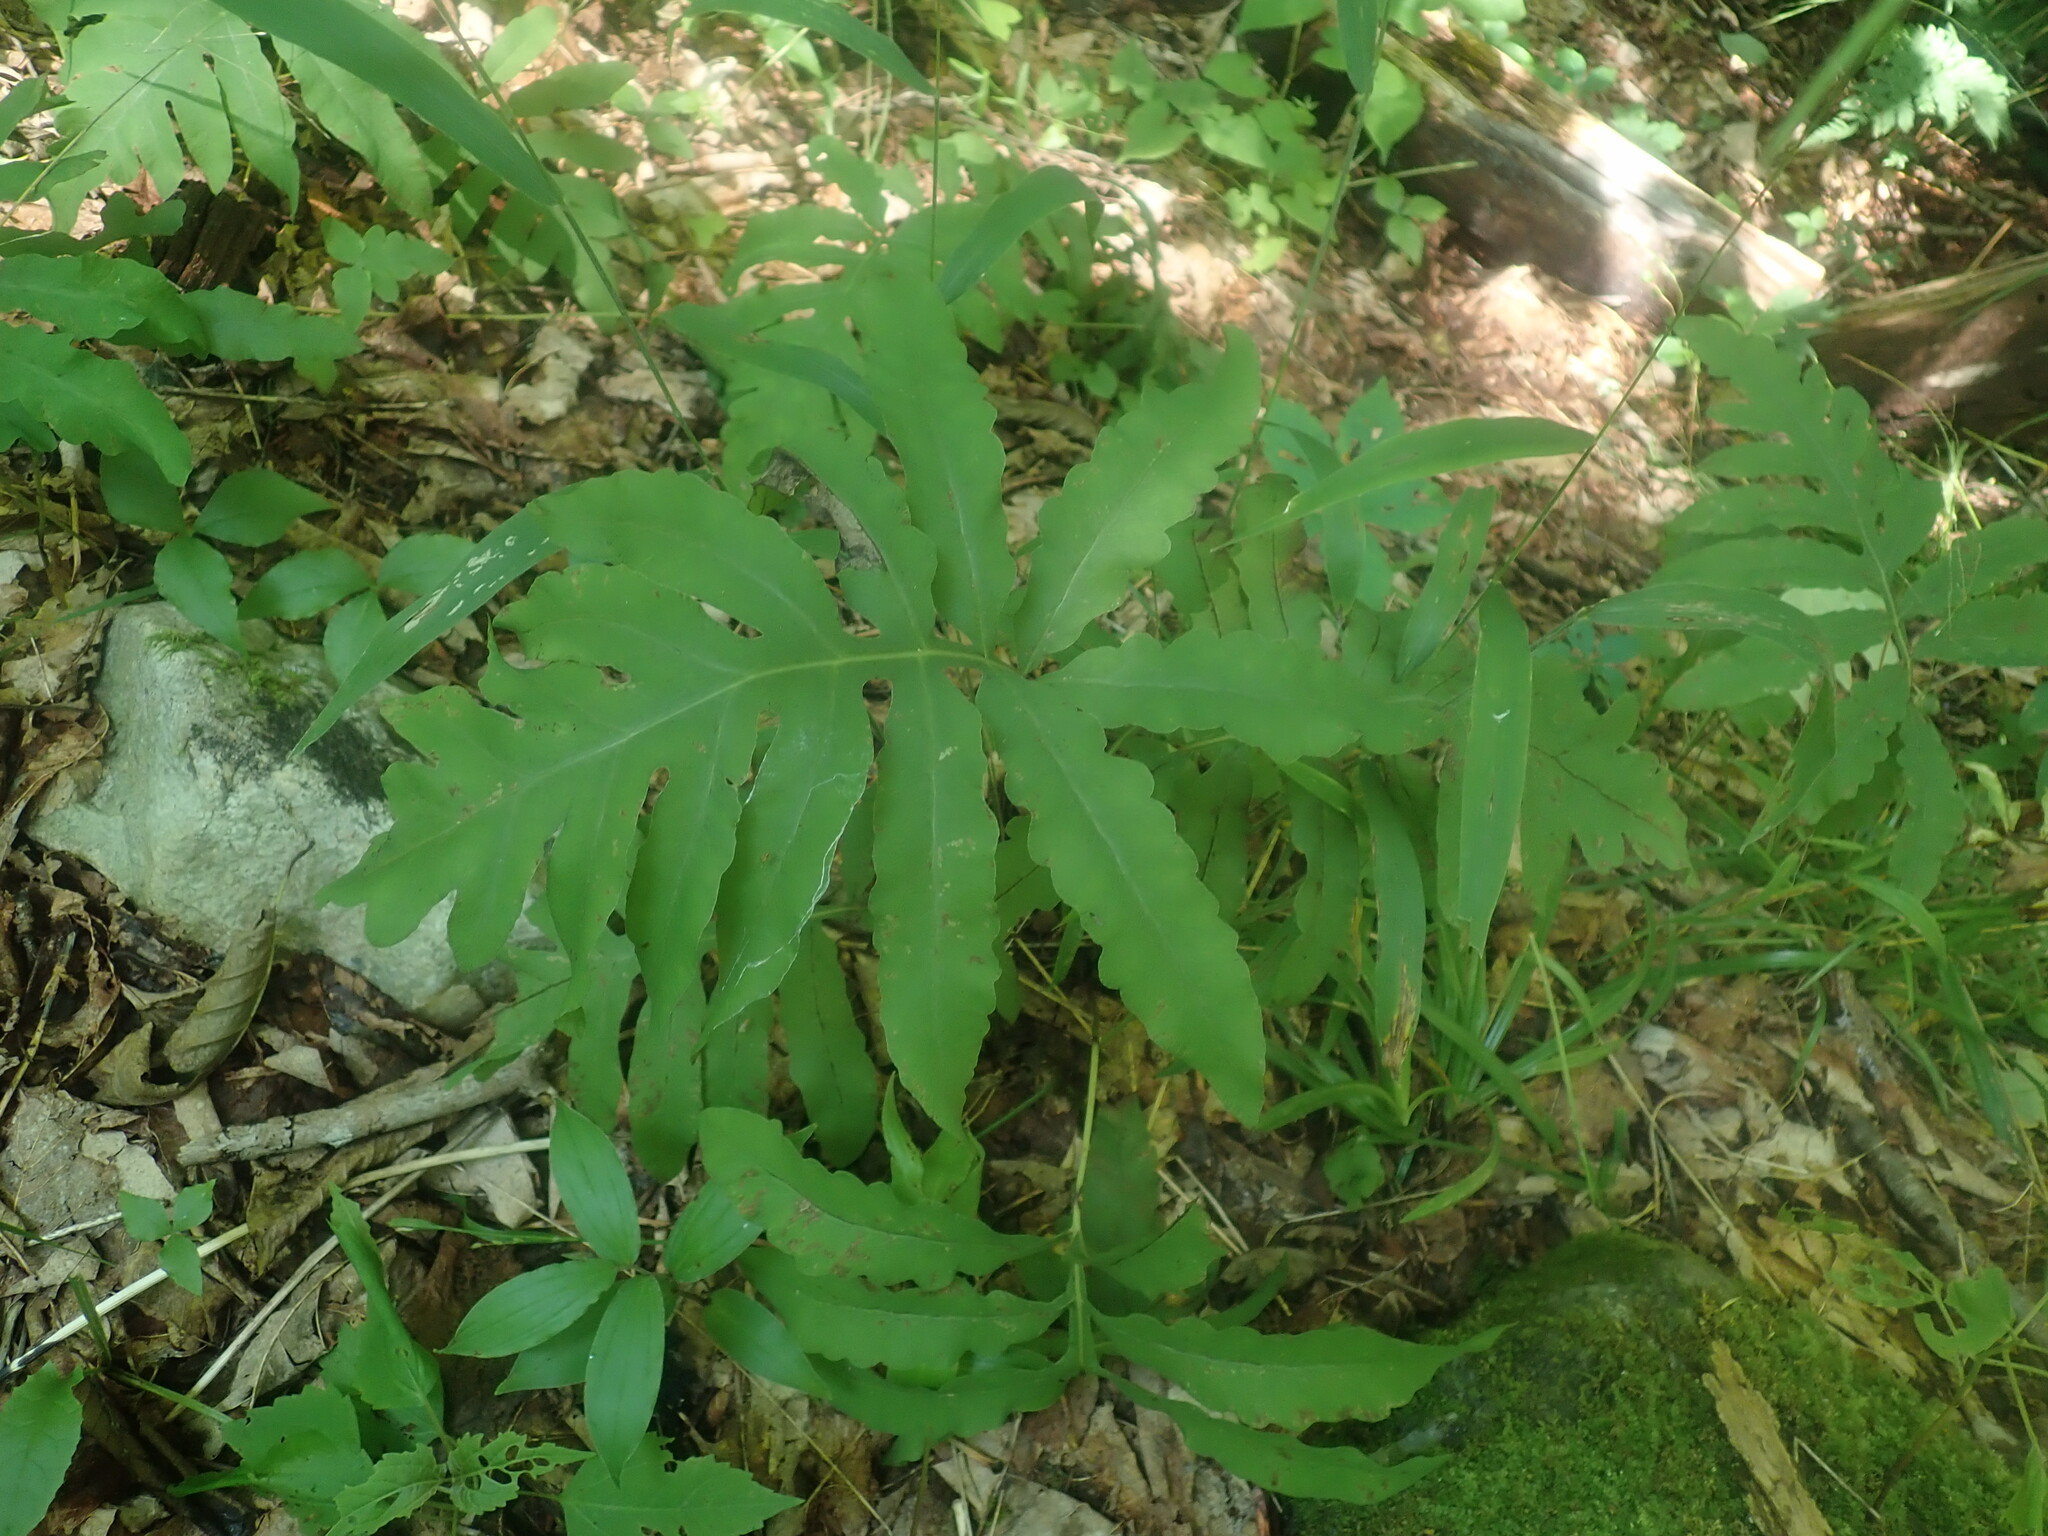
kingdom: Plantae
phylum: Tracheophyta
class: Polypodiopsida
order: Polypodiales
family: Onocleaceae
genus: Onoclea
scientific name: Onoclea sensibilis
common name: Sensitive fern
